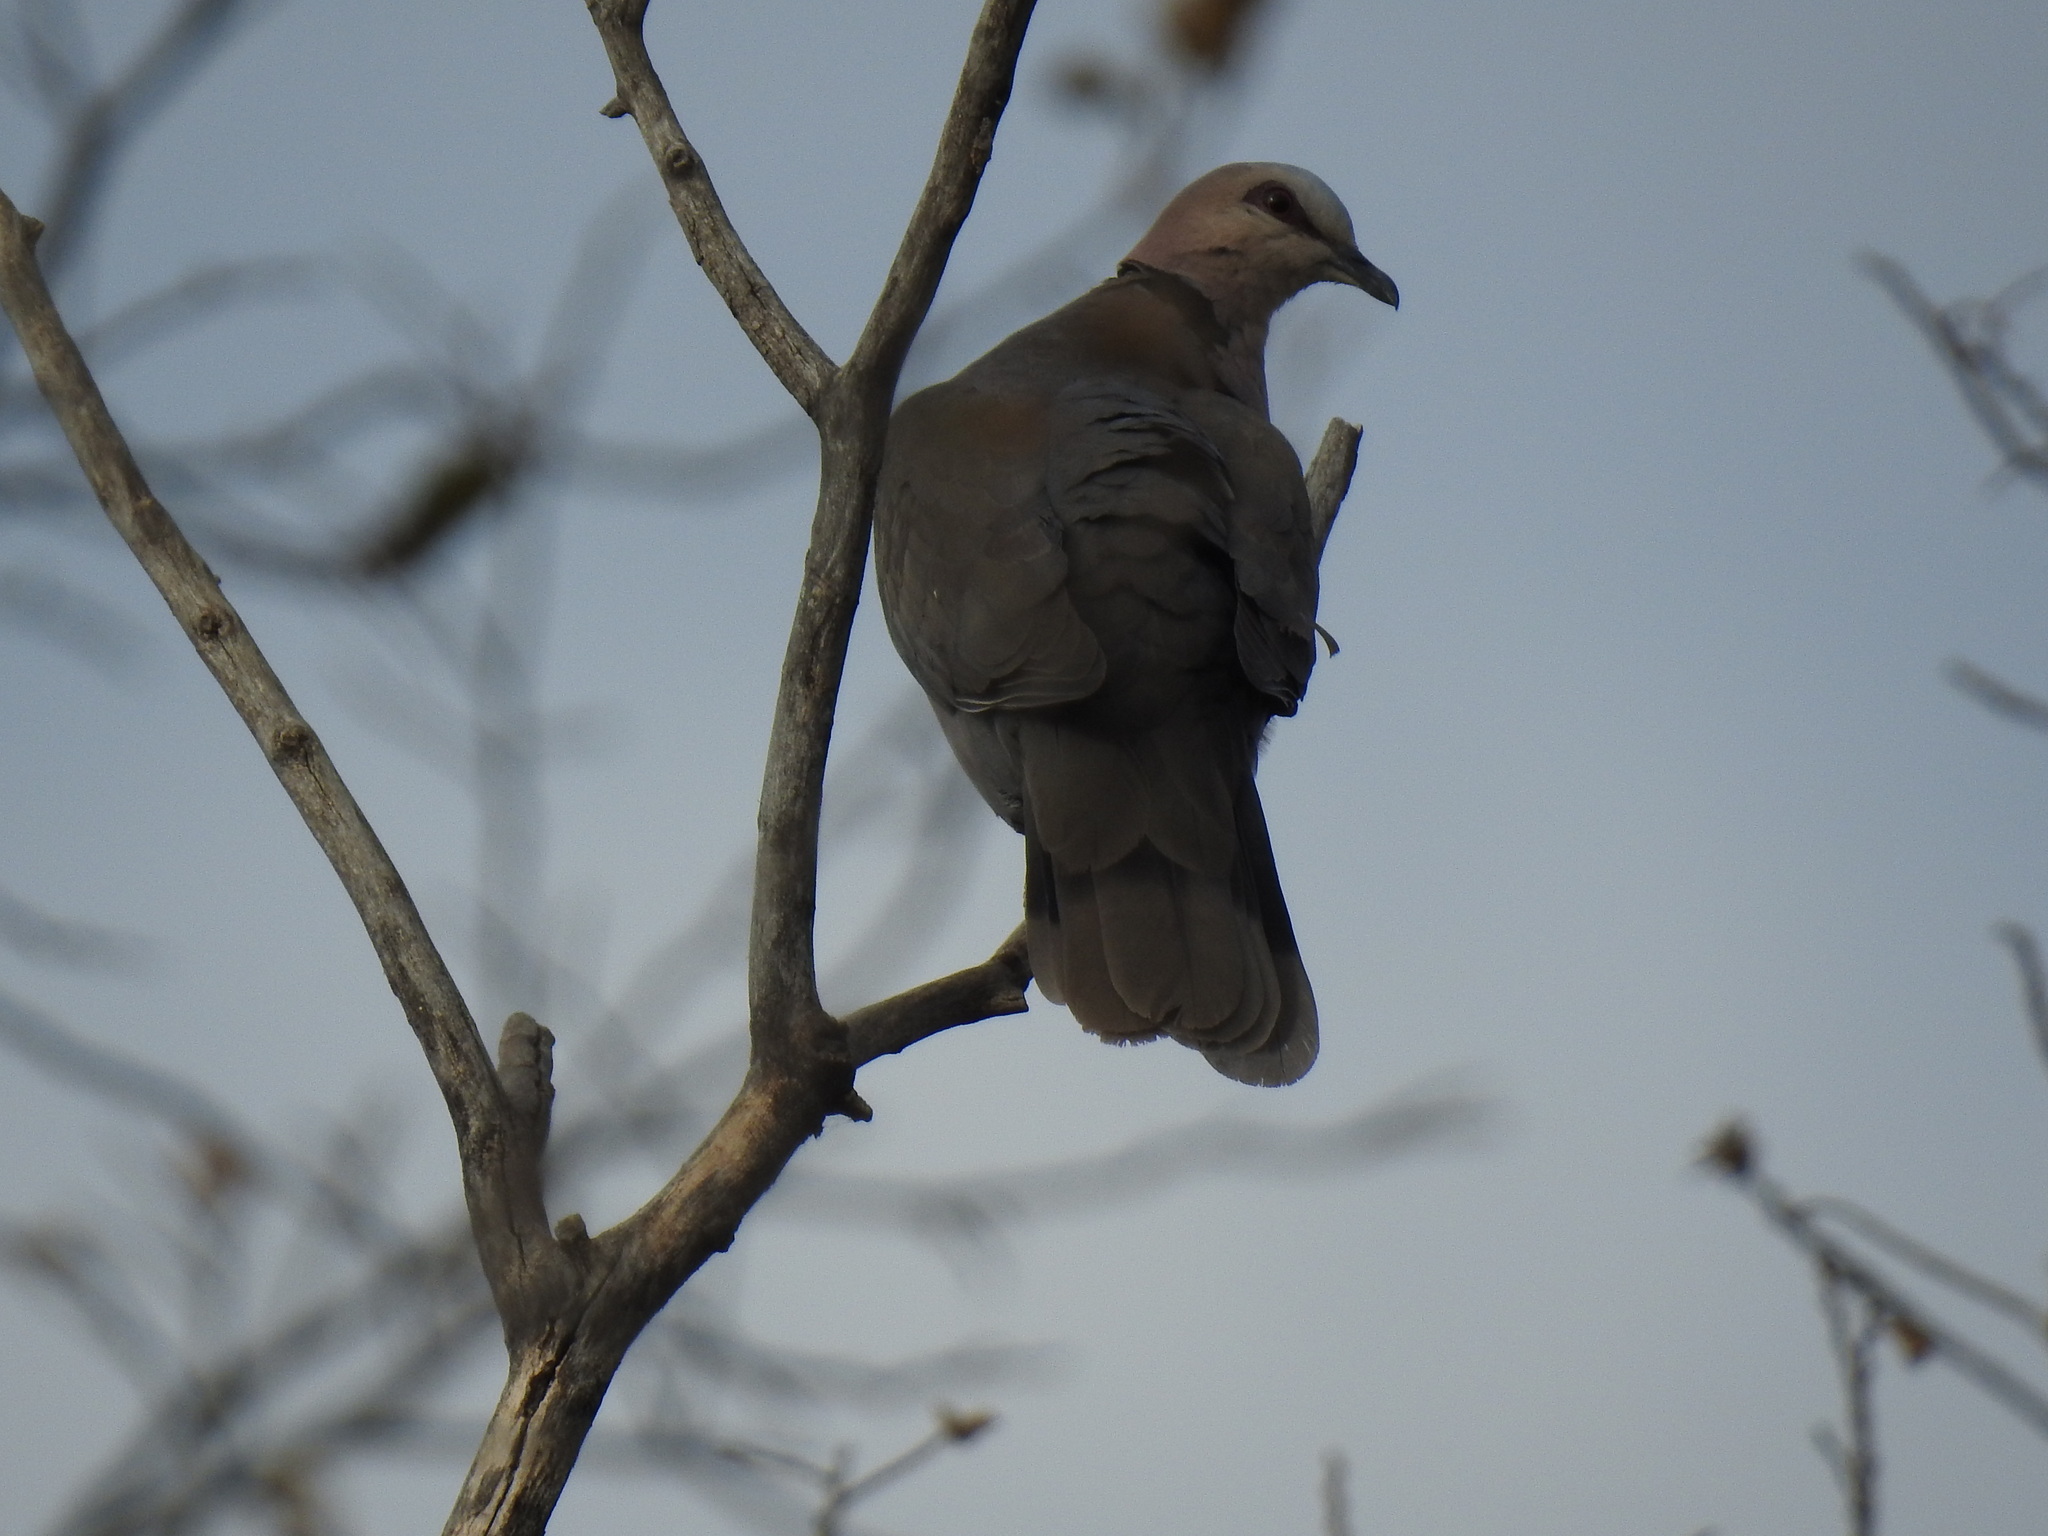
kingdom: Animalia
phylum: Chordata
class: Aves
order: Columbiformes
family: Columbidae
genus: Streptopelia
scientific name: Streptopelia semitorquata
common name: Red-eyed dove
